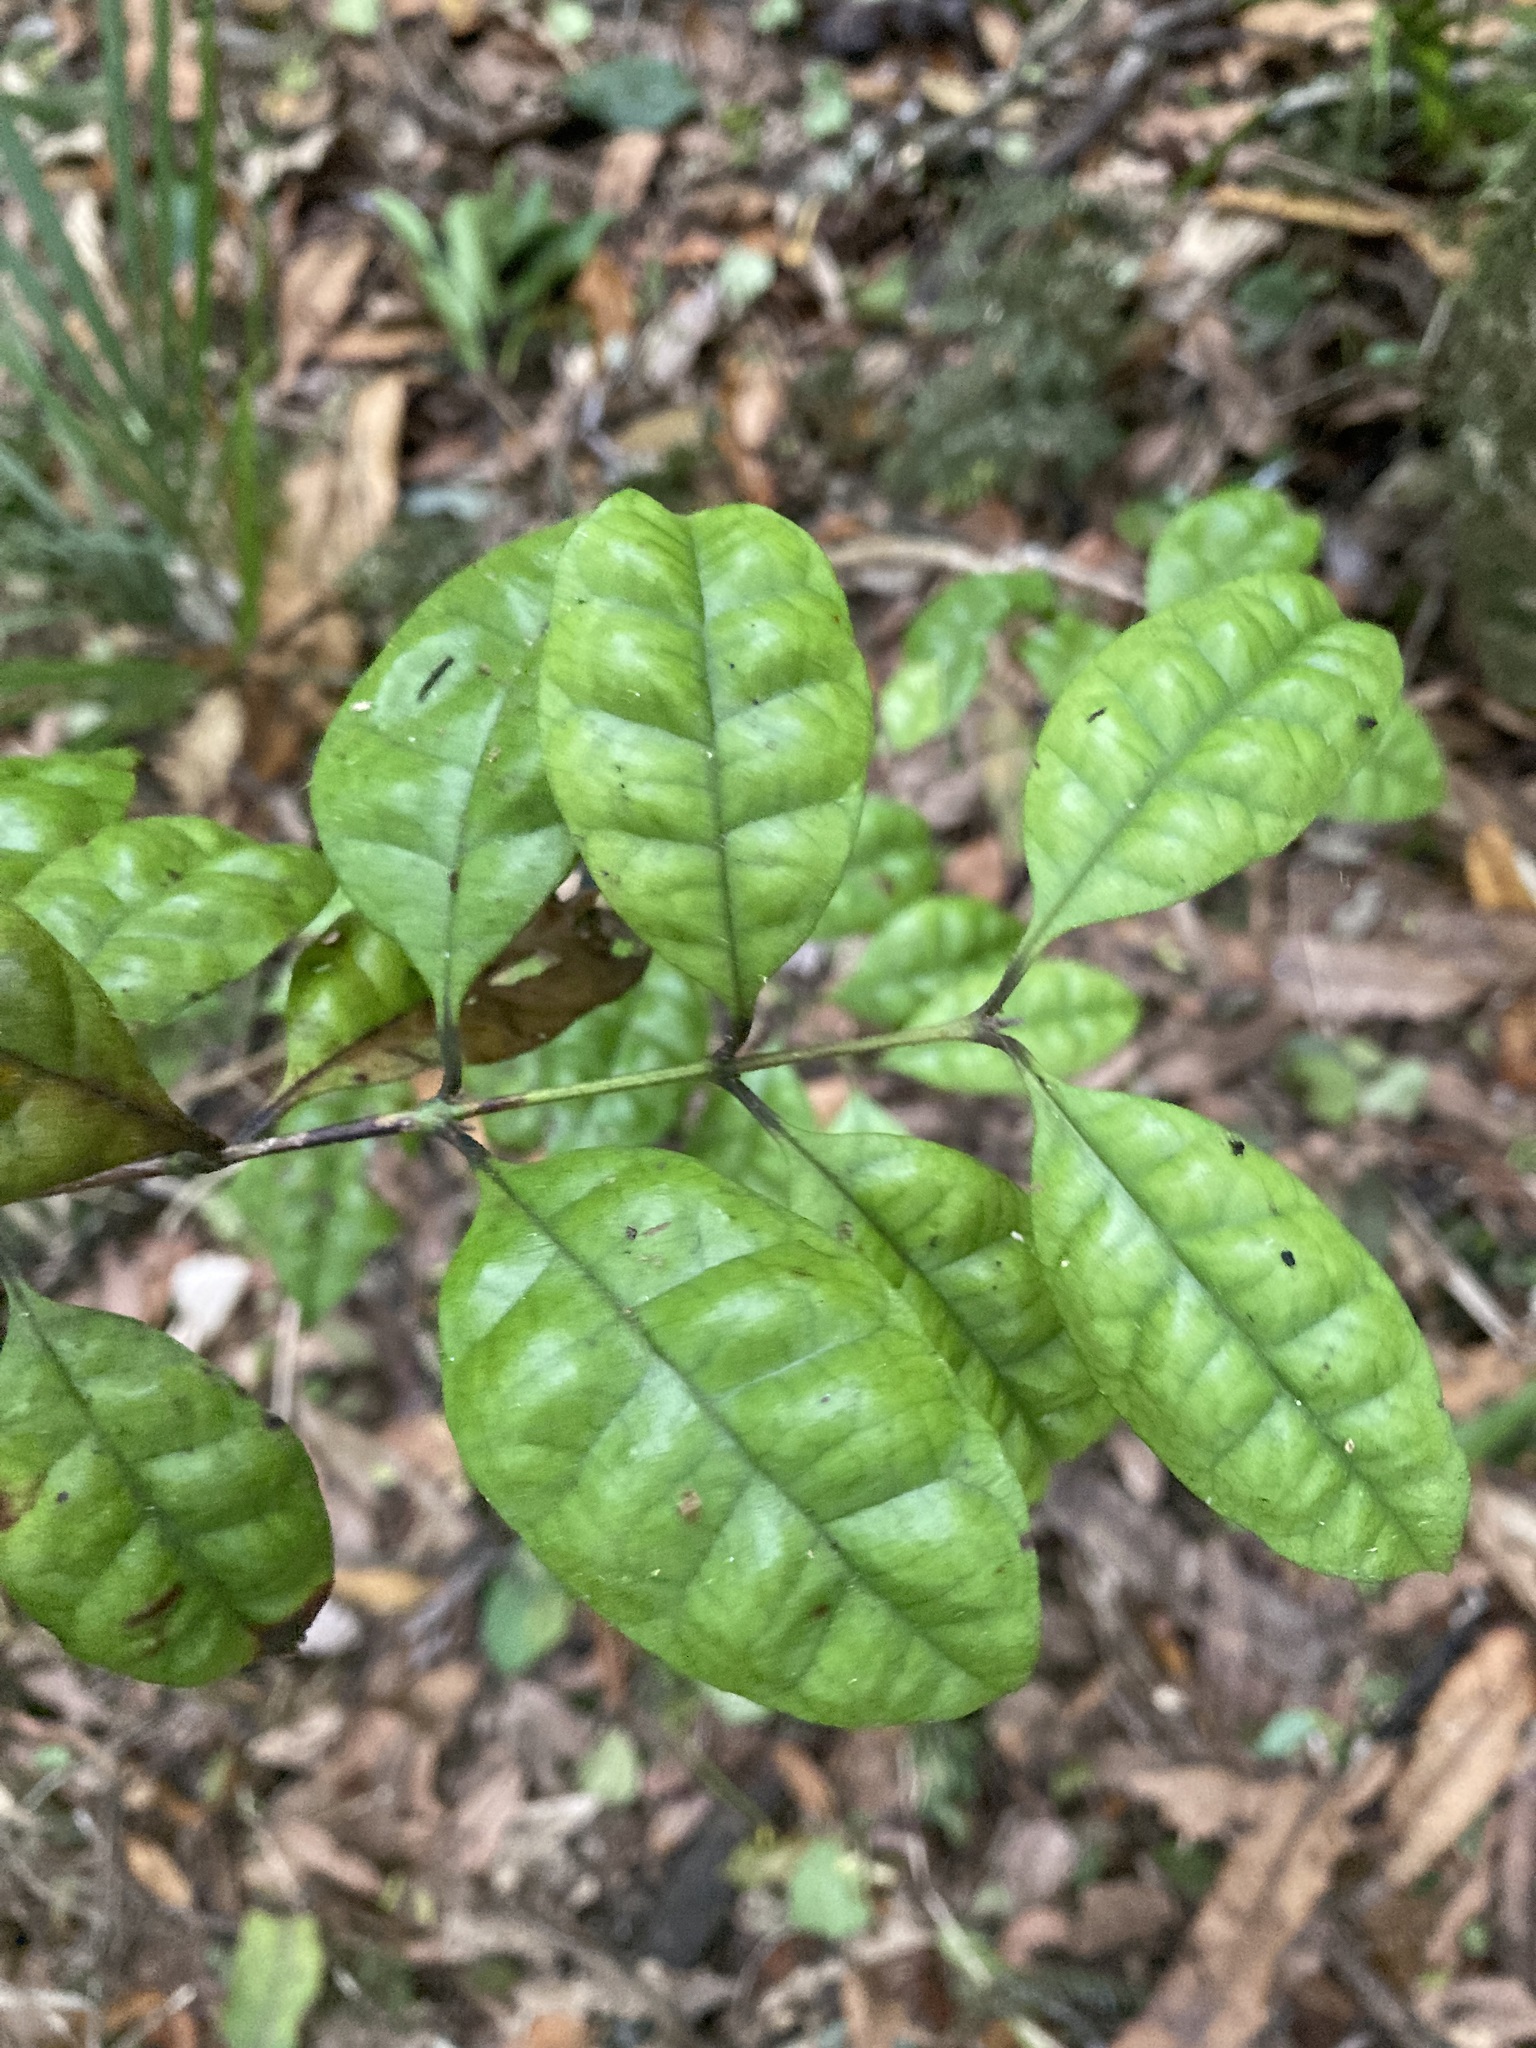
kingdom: Plantae
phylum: Tracheophyta
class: Magnoliopsida
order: Myrtales
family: Myrtaceae
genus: Lophomyrtus
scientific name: Lophomyrtus bullata
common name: Rama rama
